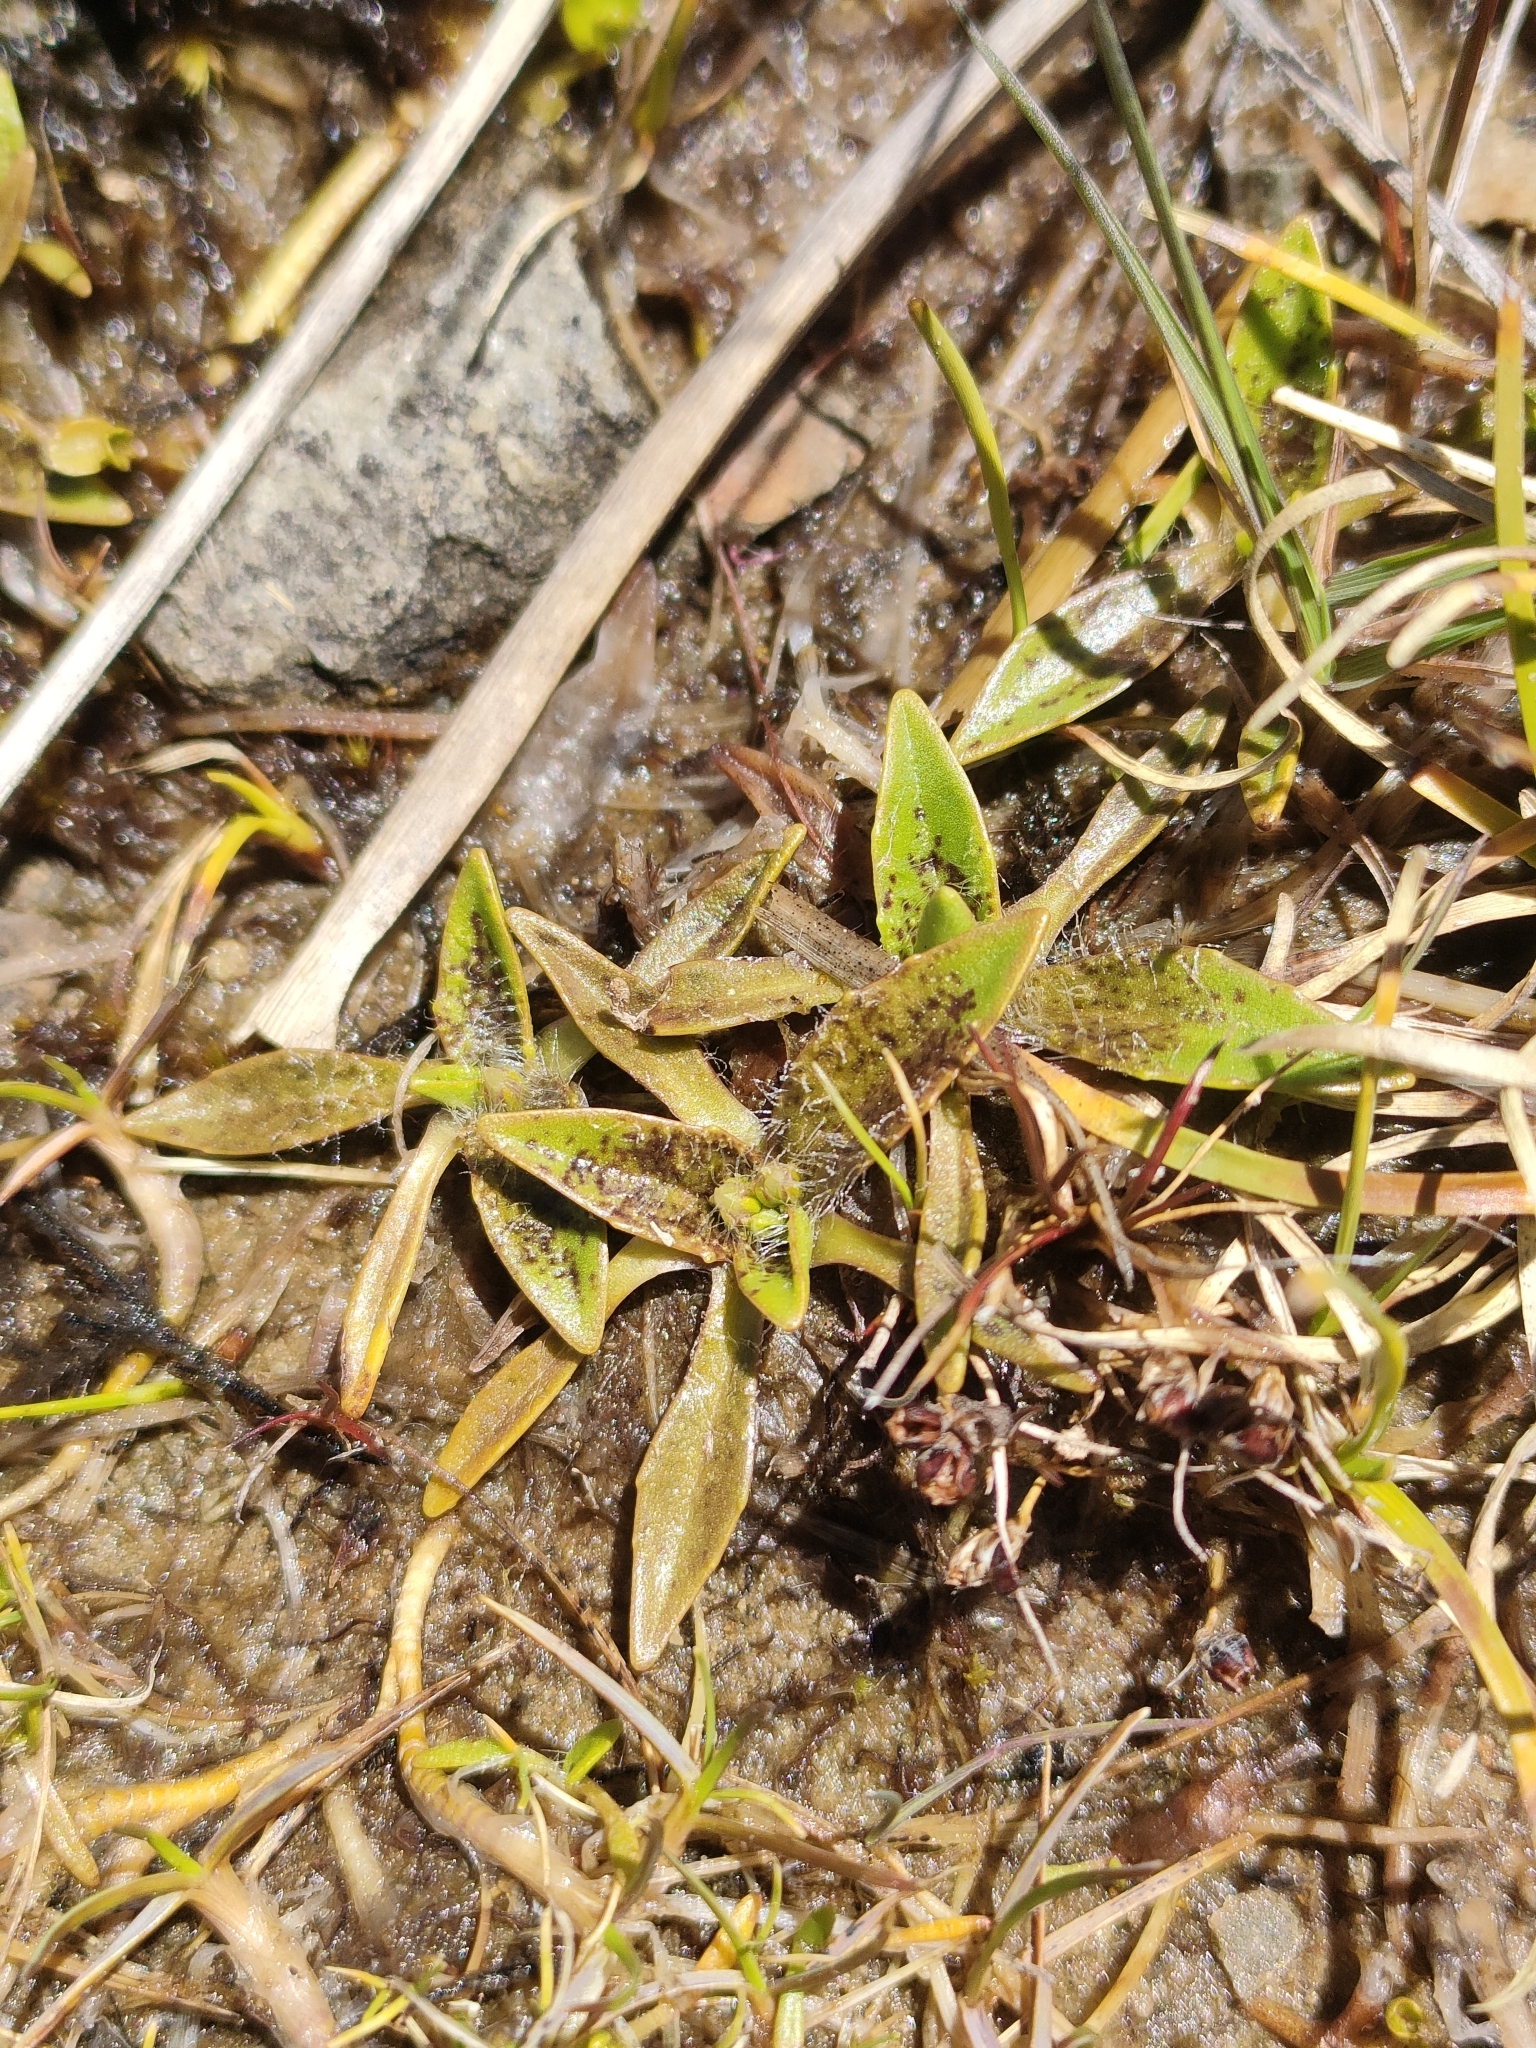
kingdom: Plantae
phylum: Tracheophyta
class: Magnoliopsida
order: Lamiales
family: Plantaginaceae
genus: Plantago
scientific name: Plantago triandra
